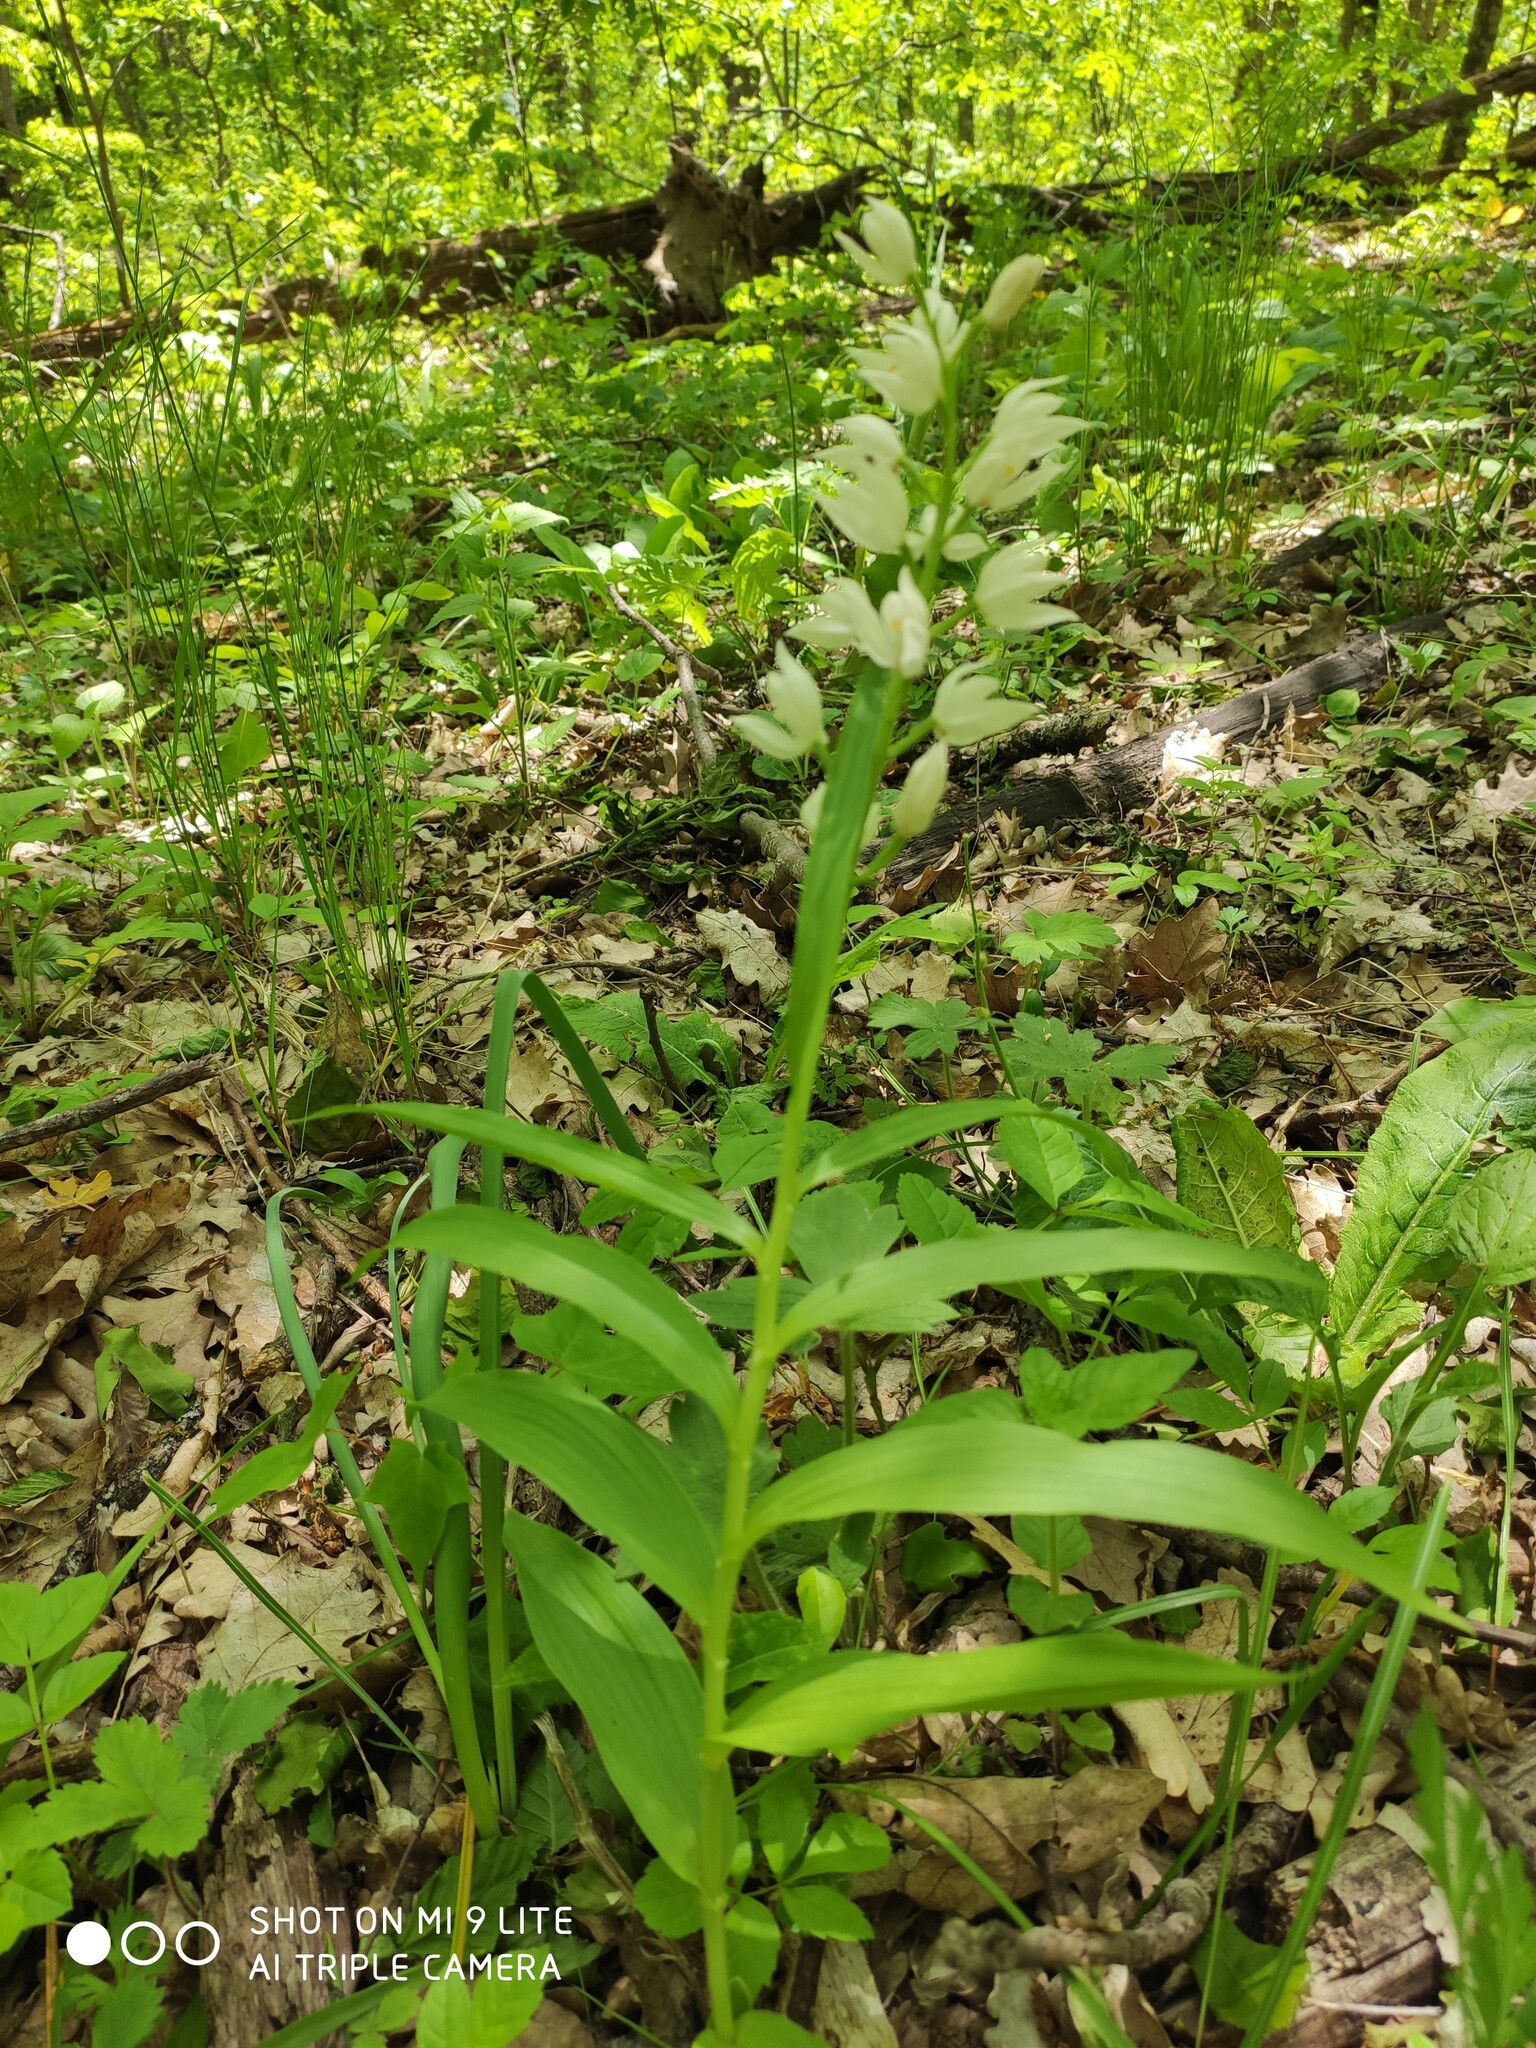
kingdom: Plantae
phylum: Tracheophyta
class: Liliopsida
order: Asparagales
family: Orchidaceae
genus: Cephalanthera
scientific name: Cephalanthera longifolia
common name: Narrow-leaved helleborine
